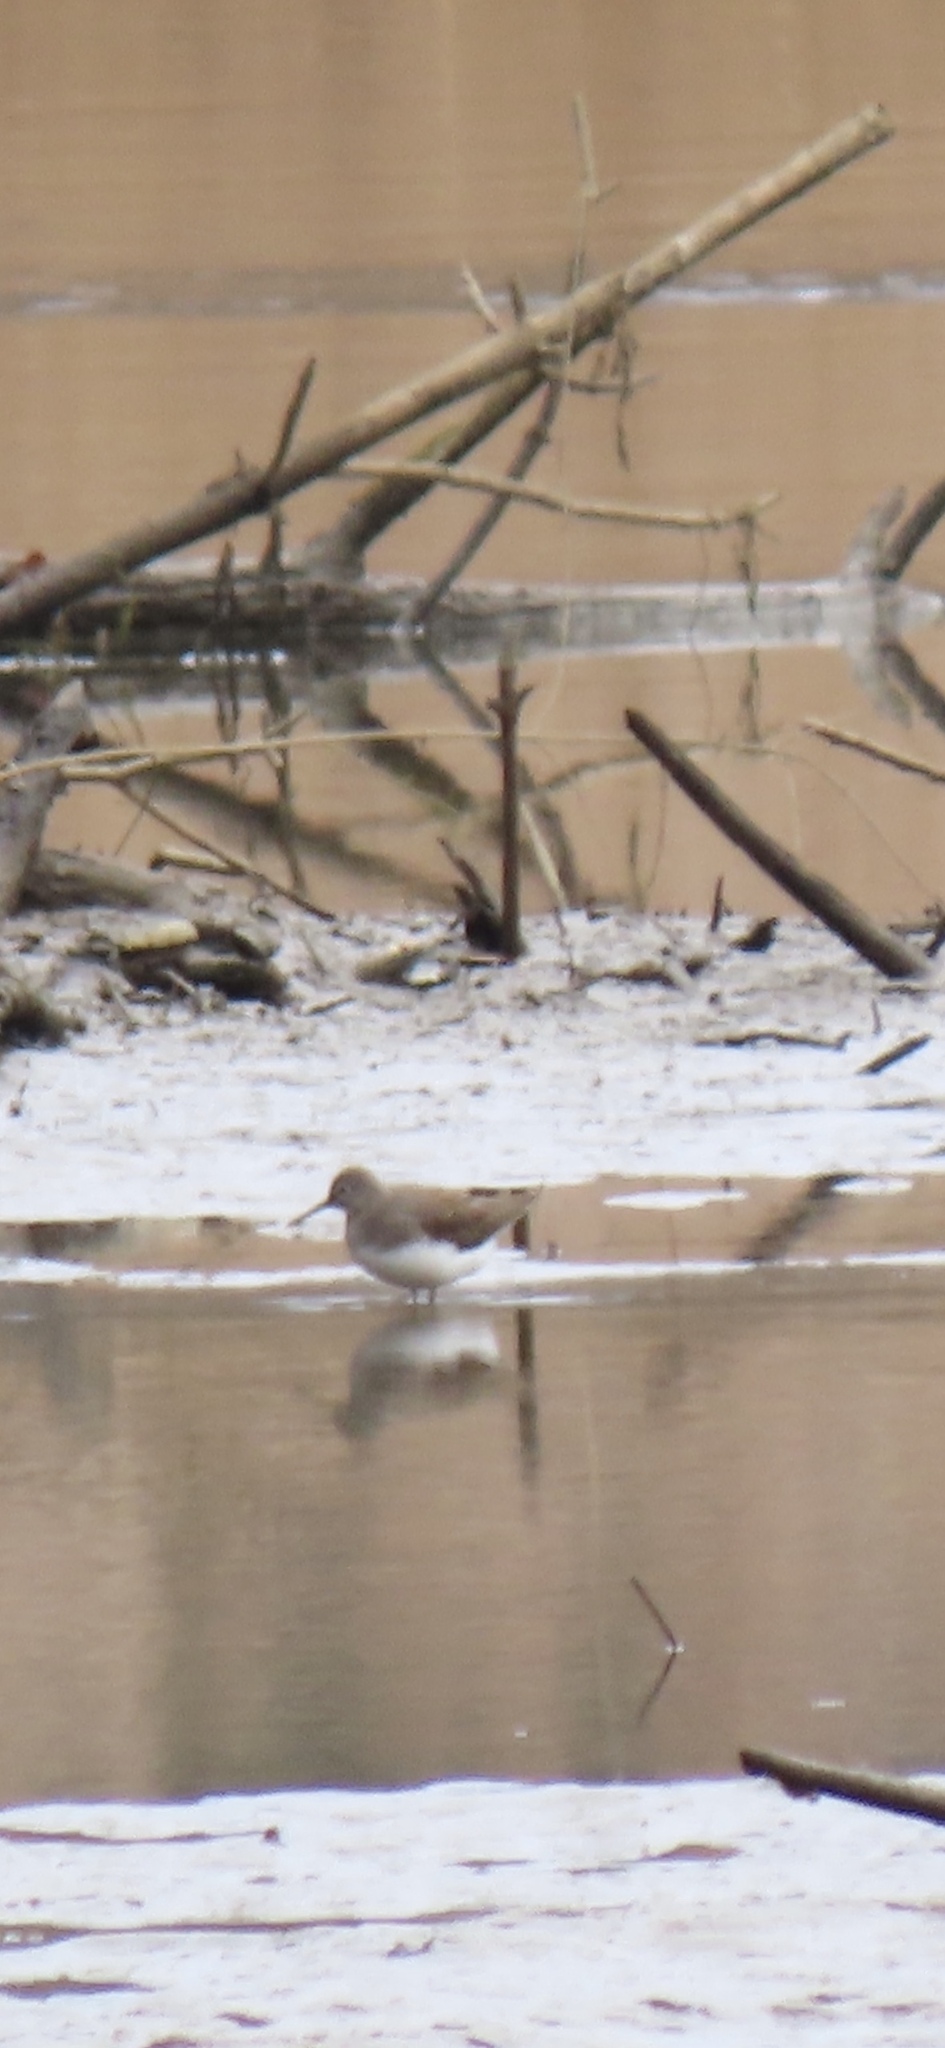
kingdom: Animalia
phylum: Chordata
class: Aves
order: Charadriiformes
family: Scolopacidae
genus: Tringa
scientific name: Tringa ochropus
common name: Green sandpiper
